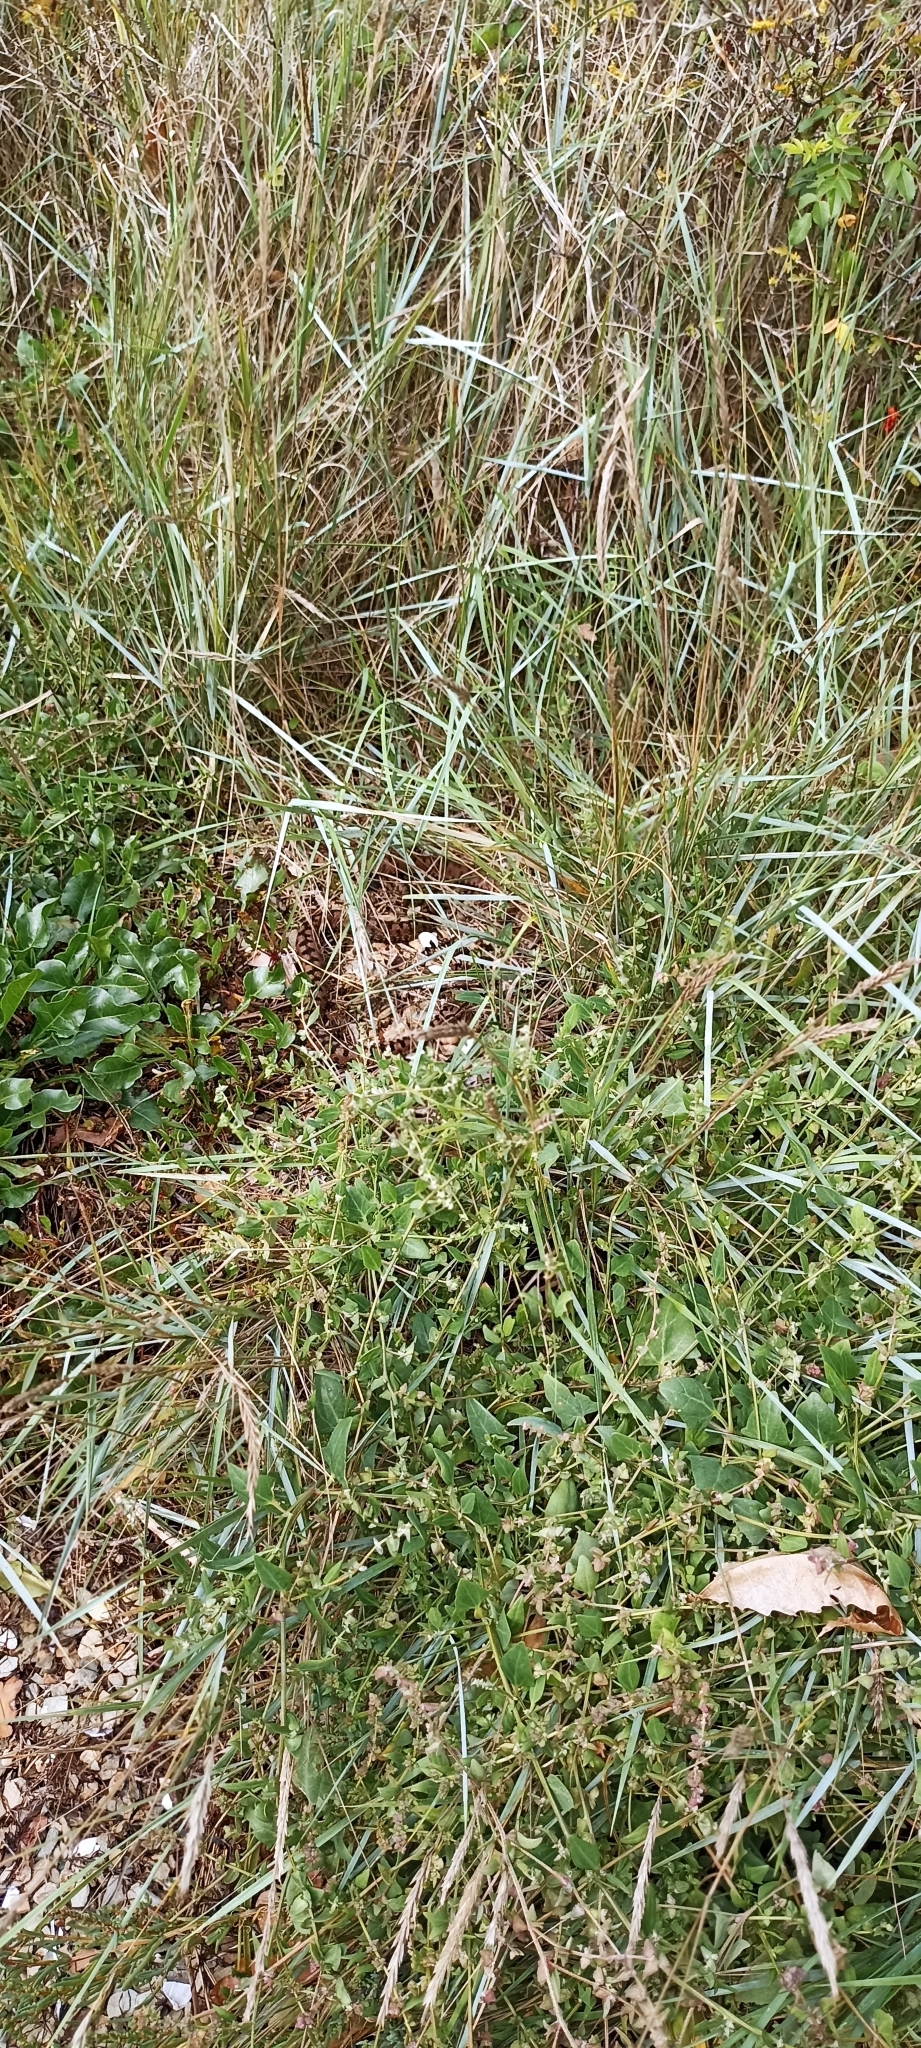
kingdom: Animalia
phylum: Chordata
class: Squamata
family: Viperidae
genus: Vipera
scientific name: Vipera aspis
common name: Asp viper
